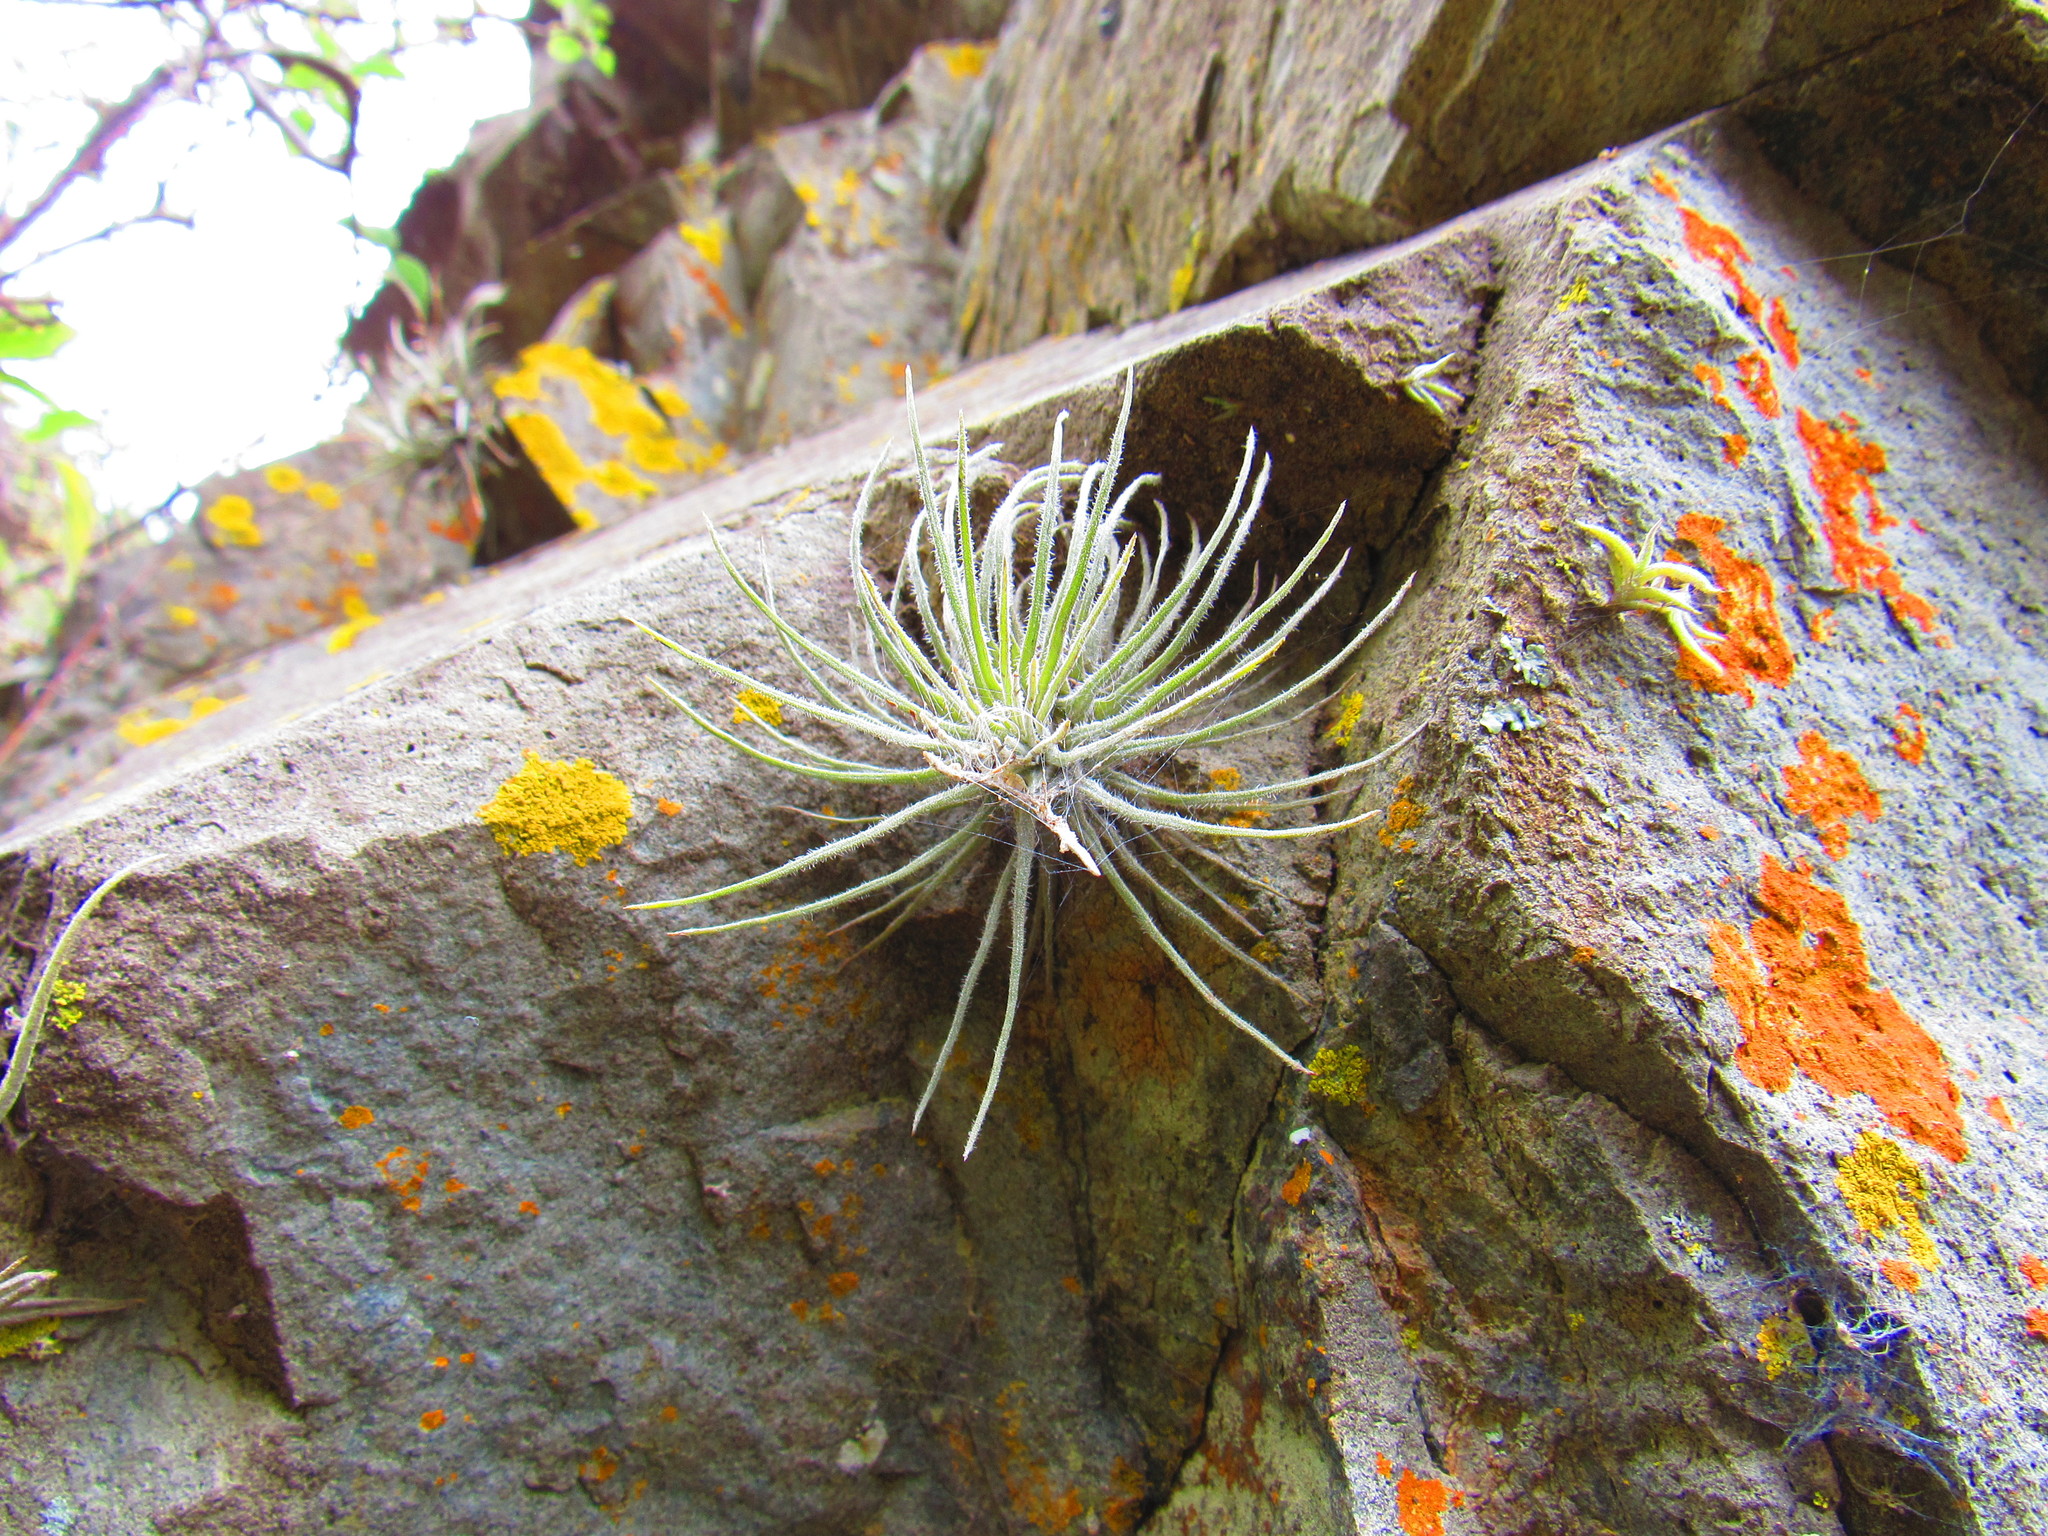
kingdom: Plantae
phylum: Tracheophyta
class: Liliopsida
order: Poales
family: Bromeliaceae
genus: Tillandsia
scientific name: Tillandsia atroviridipetala
